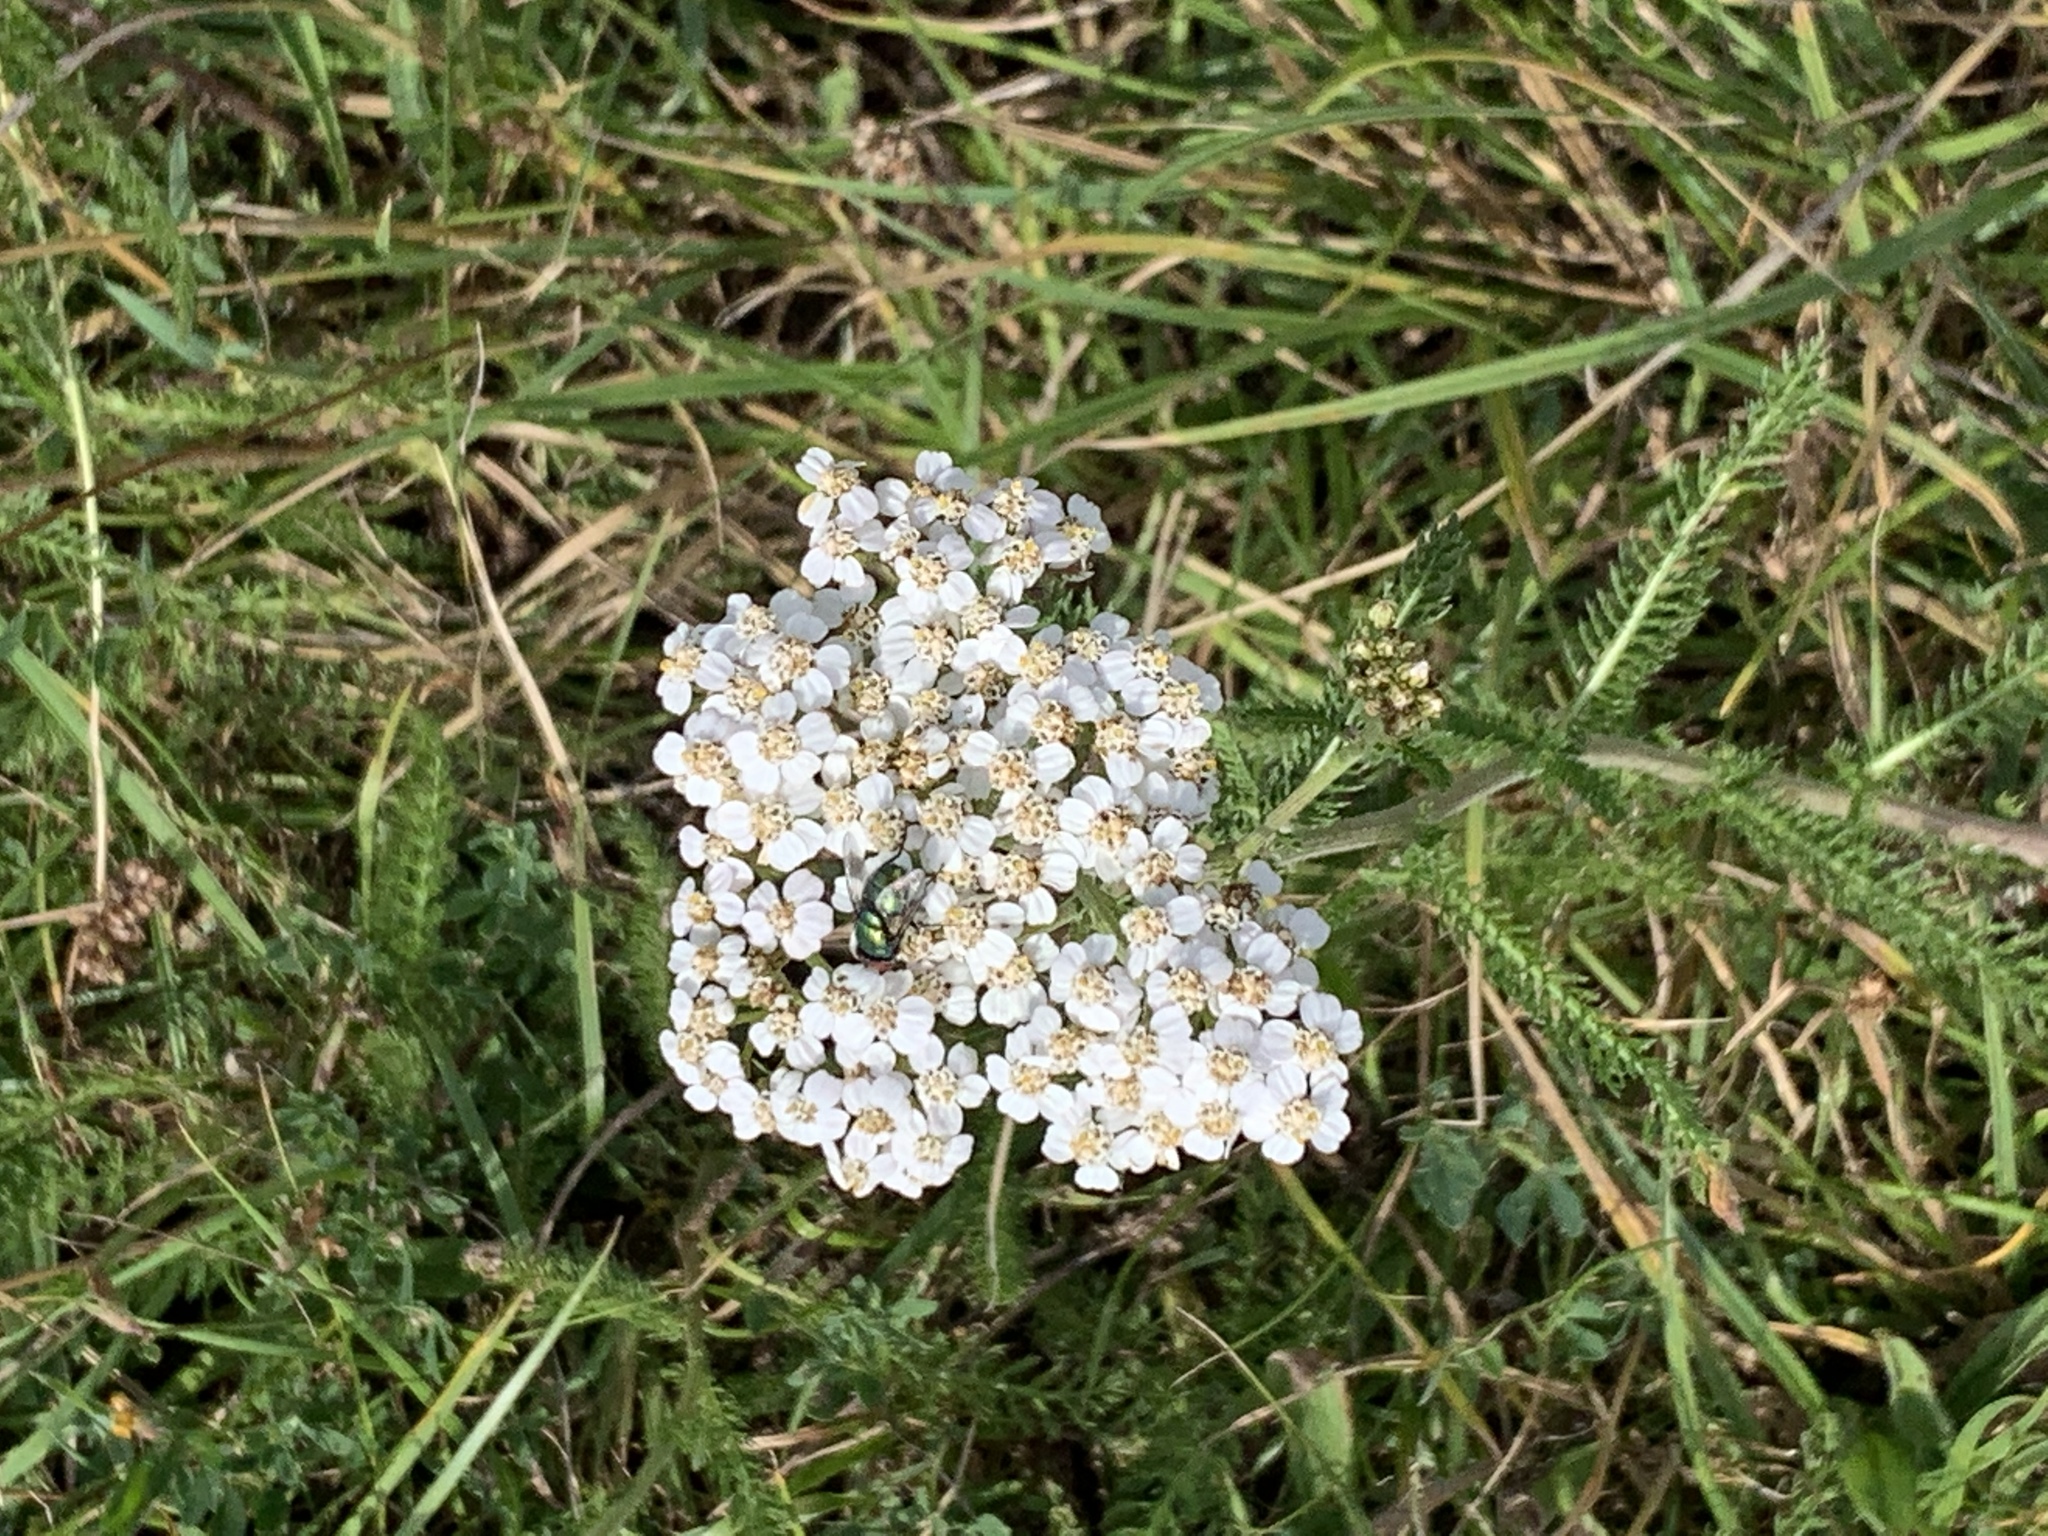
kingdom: Plantae
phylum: Tracheophyta
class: Magnoliopsida
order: Asterales
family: Asteraceae
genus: Achillea
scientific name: Achillea millefolium
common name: Yarrow
